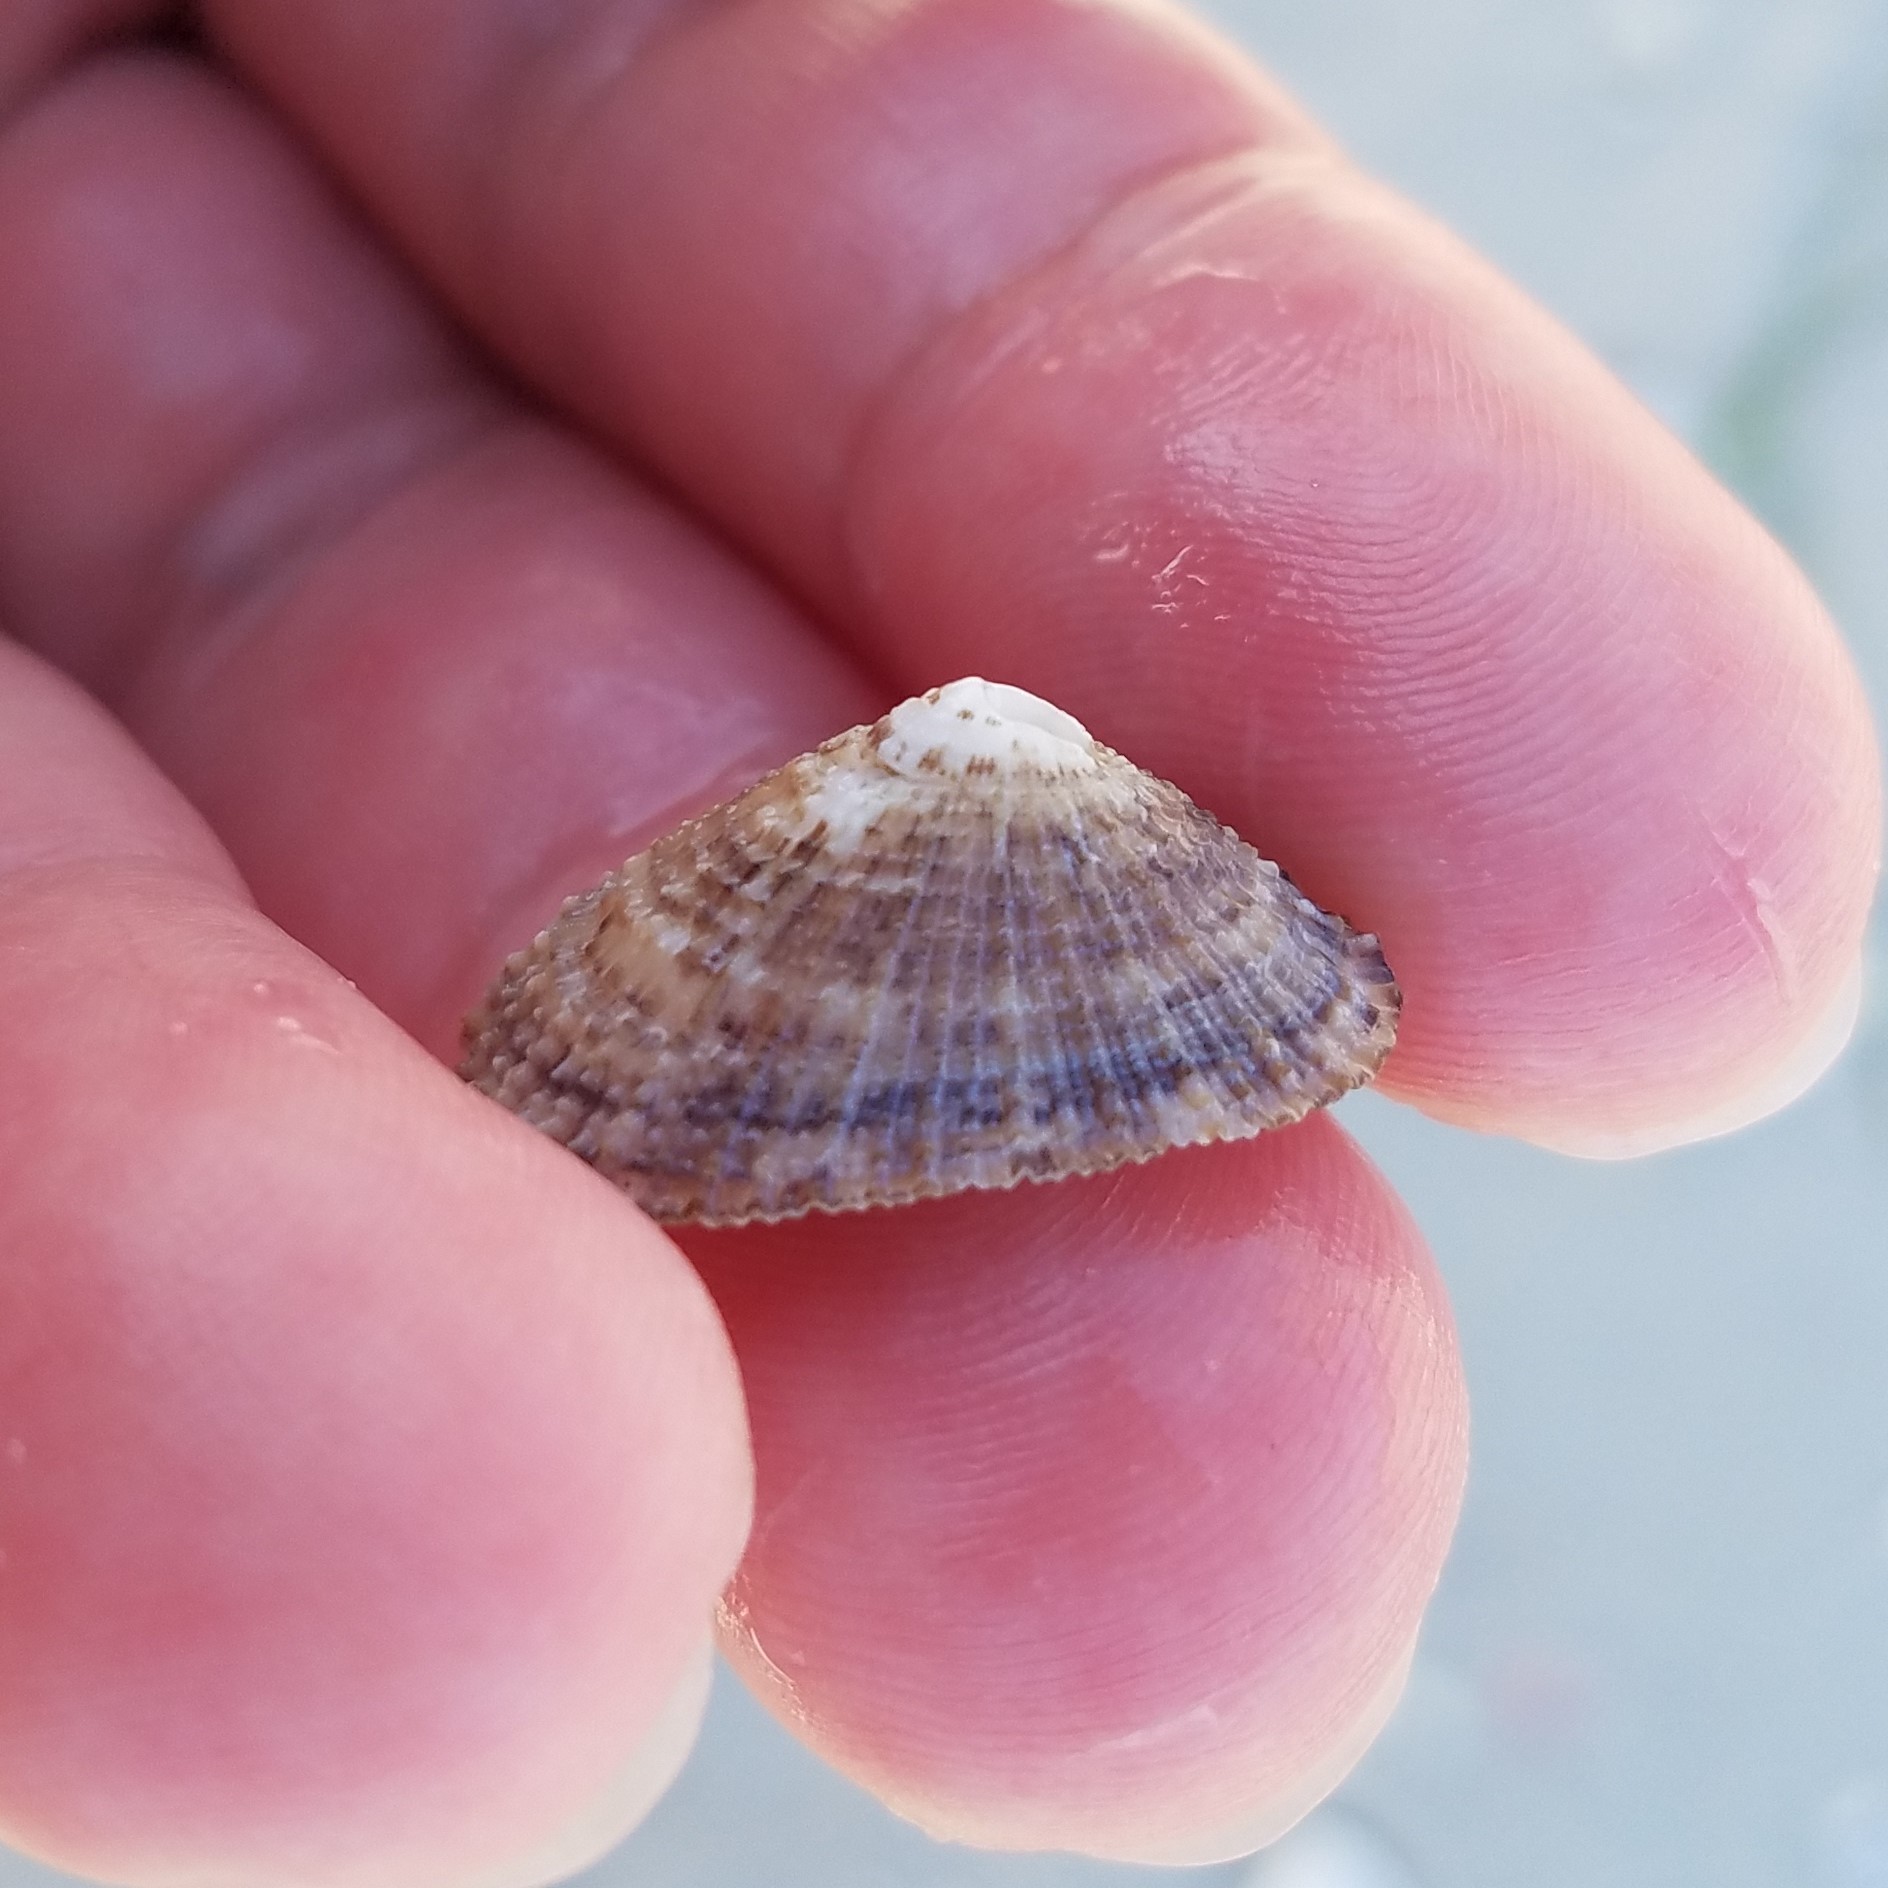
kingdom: Animalia
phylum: Mollusca
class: Gastropoda
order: Lepetellida
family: Fissurellidae
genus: Diodora
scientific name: Diodora cayenensis
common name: Cayenne keyhole limpet
